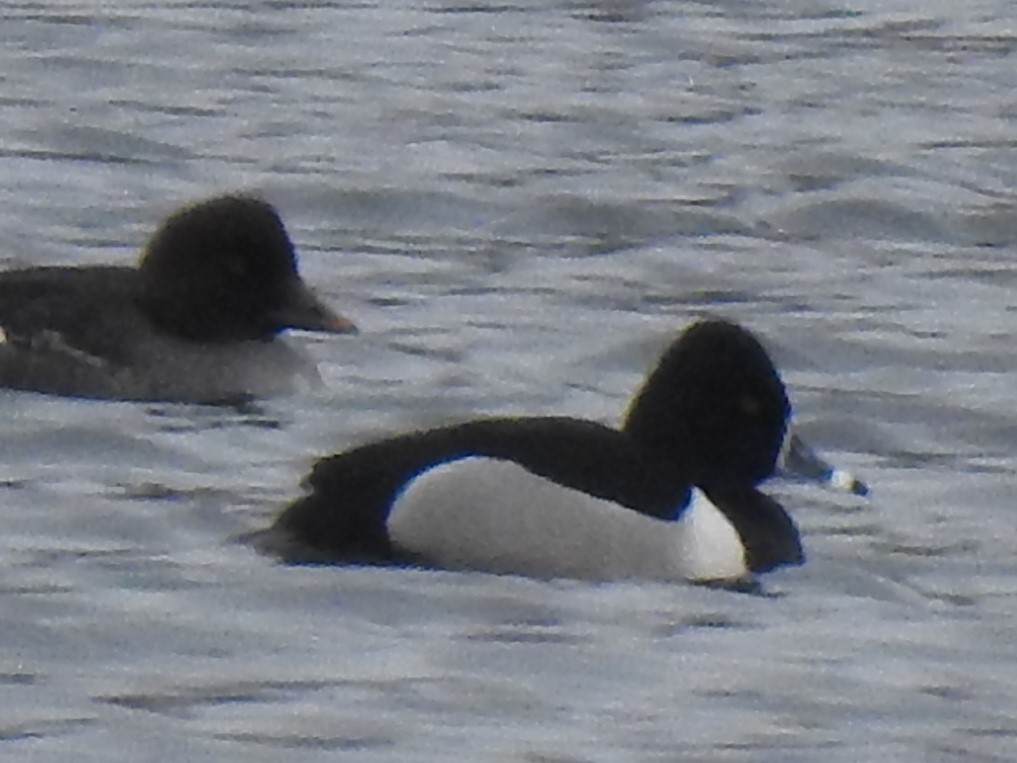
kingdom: Animalia
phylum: Chordata
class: Aves
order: Anseriformes
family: Anatidae
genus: Aythya
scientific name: Aythya collaris
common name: Ring-necked duck
